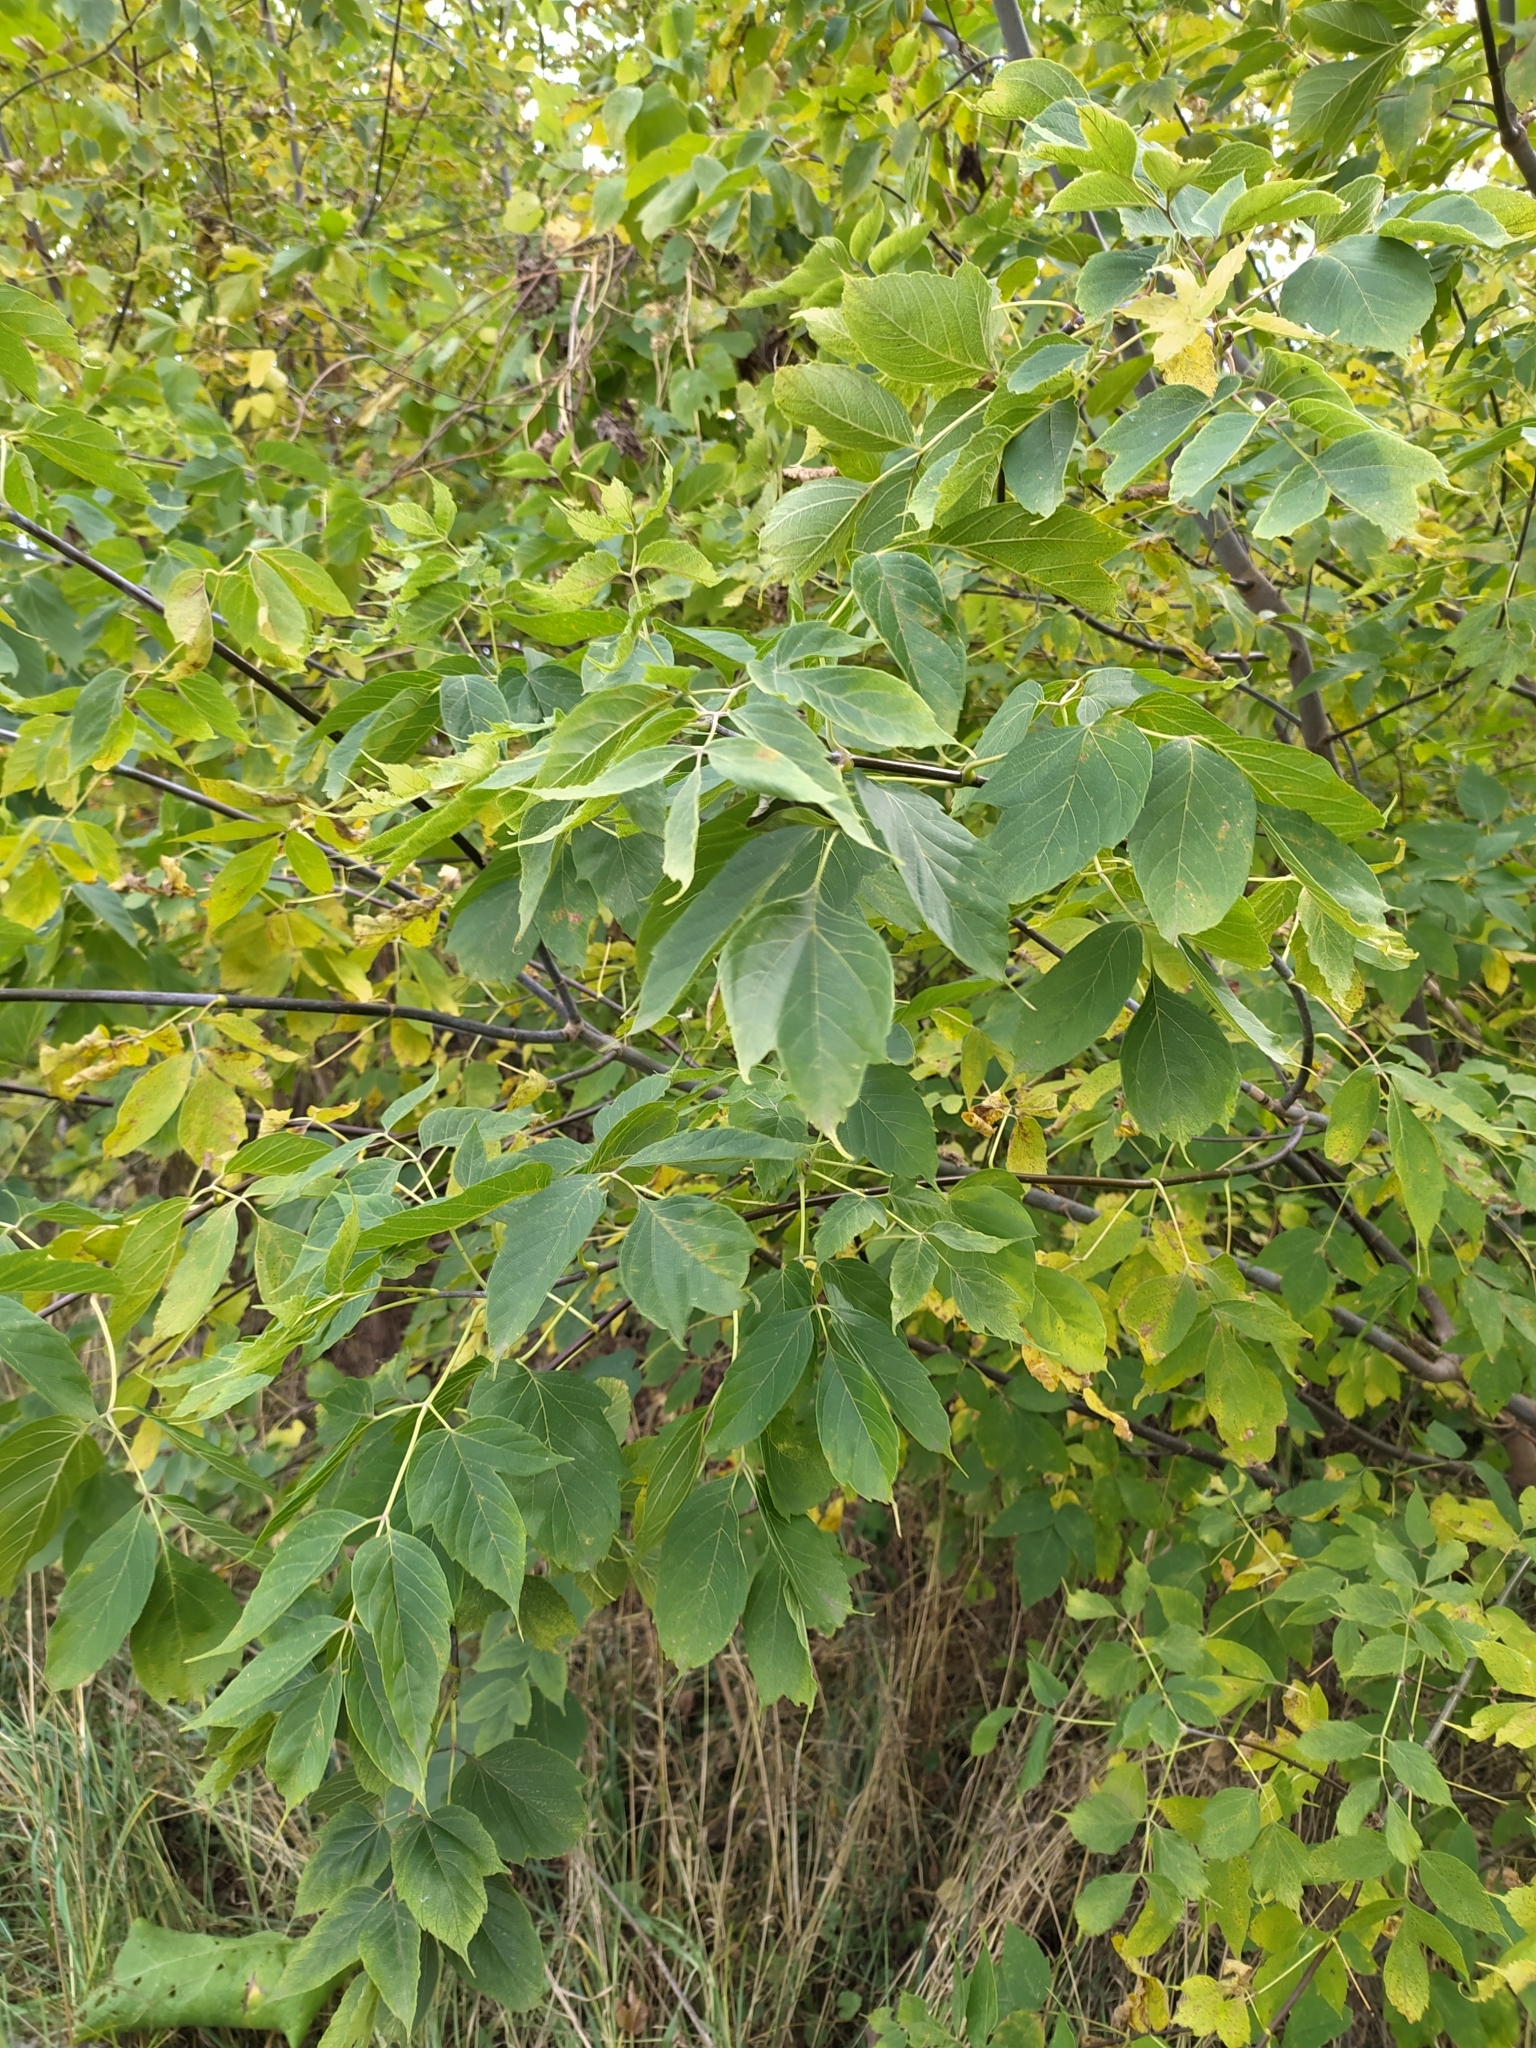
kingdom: Plantae
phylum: Tracheophyta
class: Magnoliopsida
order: Sapindales
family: Sapindaceae
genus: Acer
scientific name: Acer negundo
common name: Ashleaf maple
